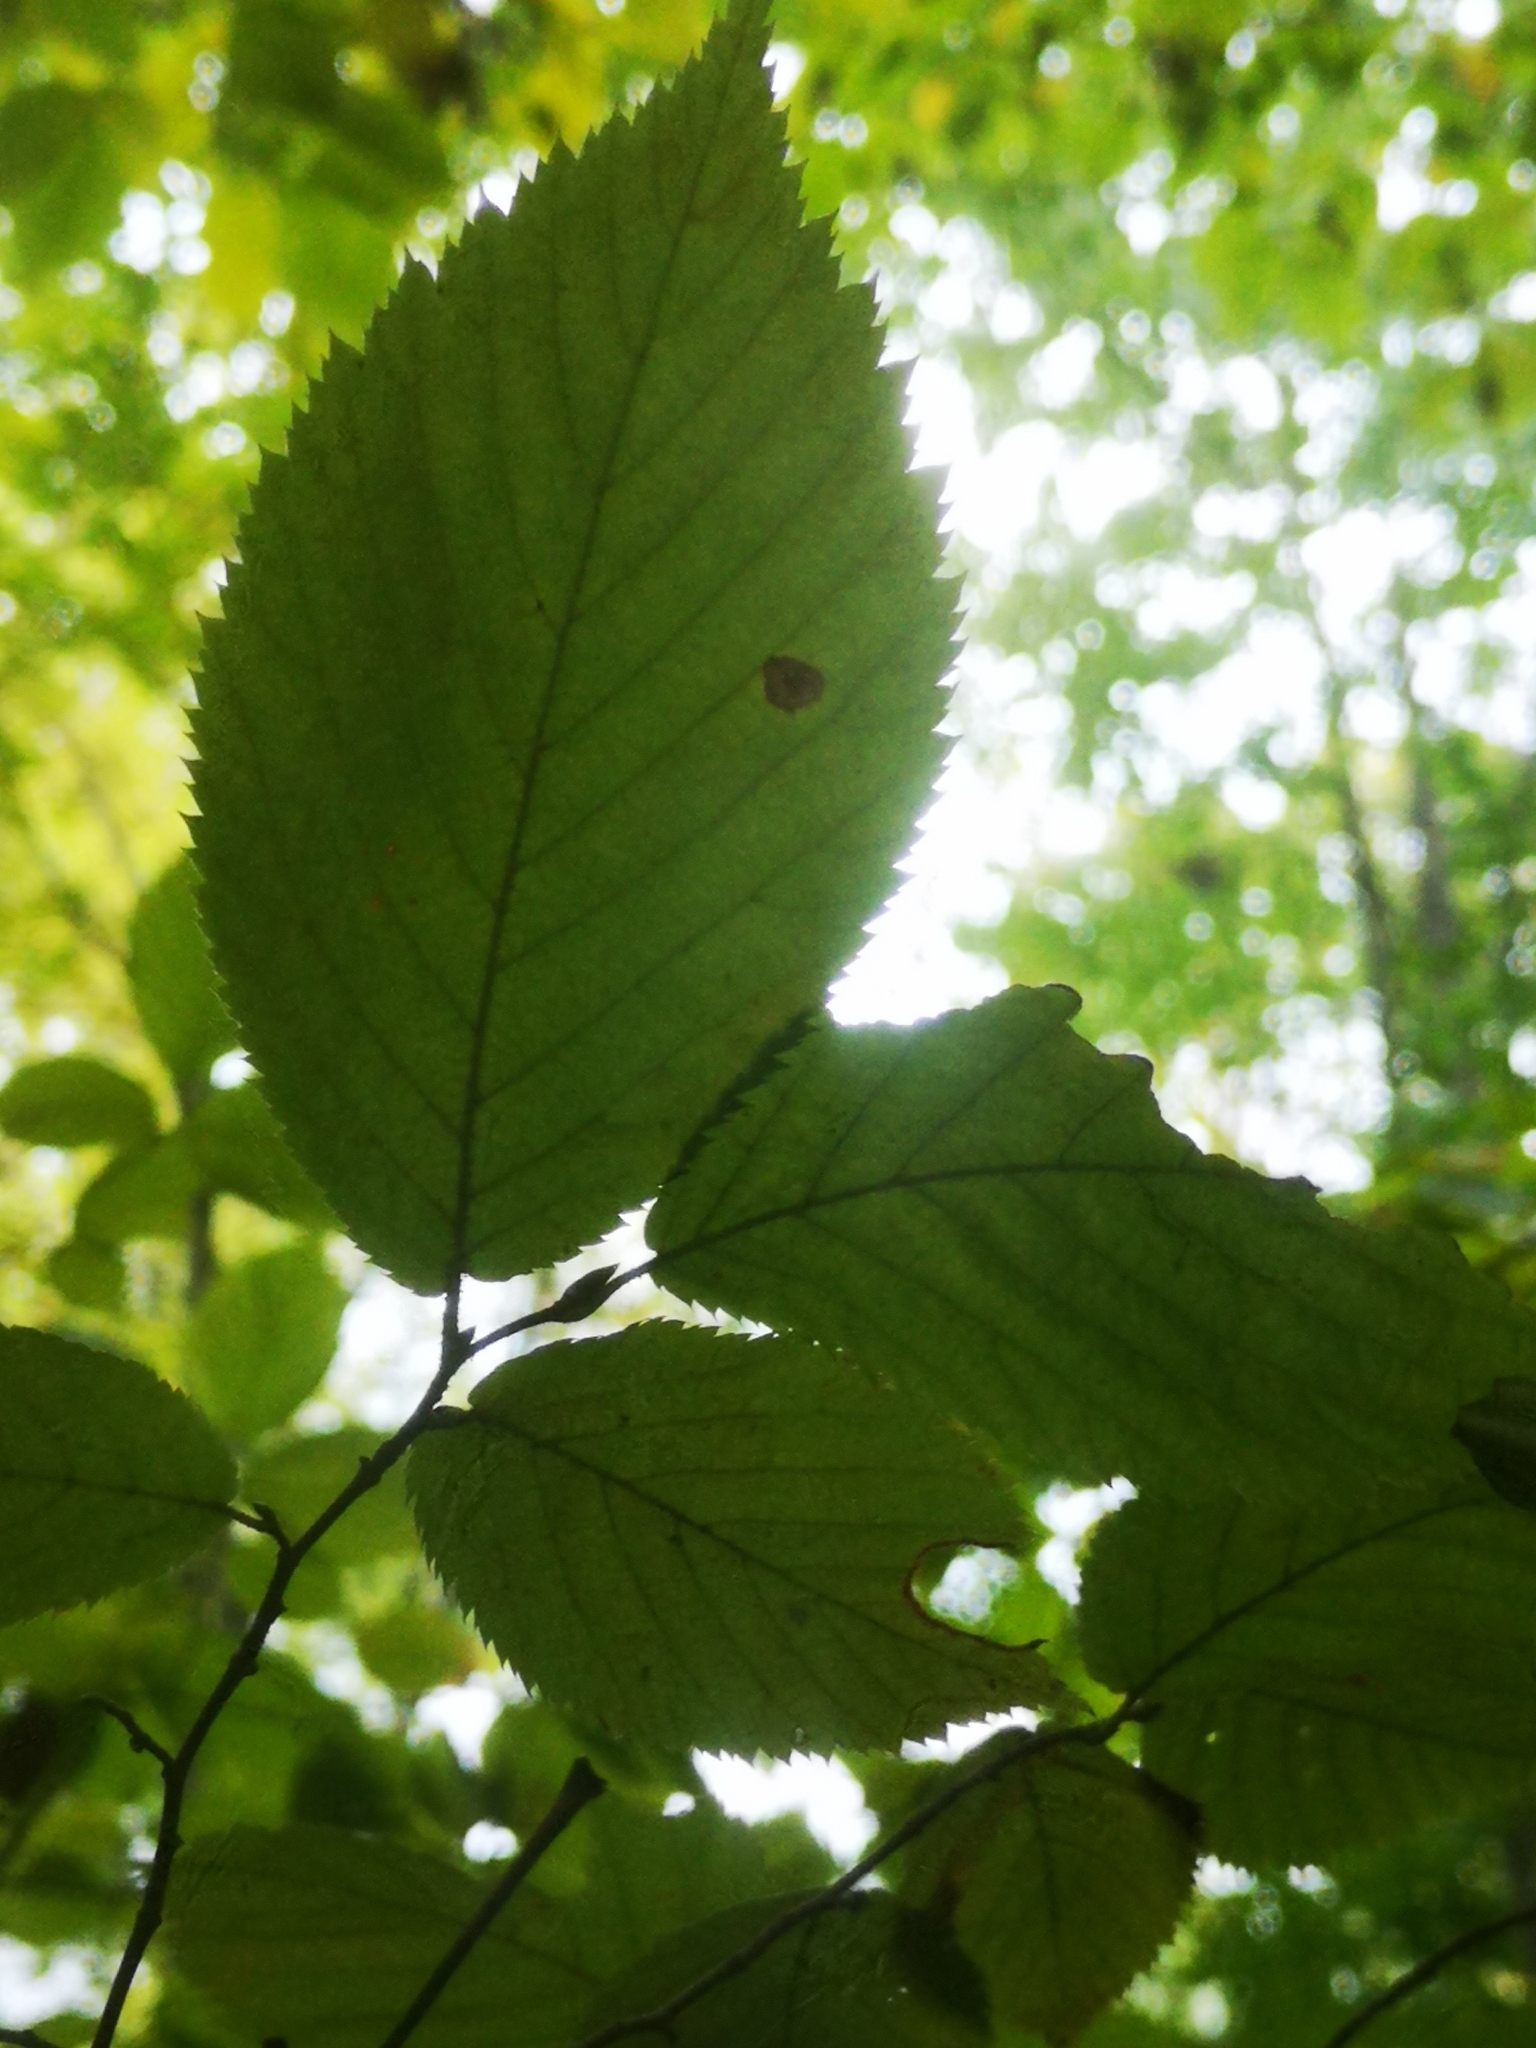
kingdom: Plantae
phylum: Tracheophyta
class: Magnoliopsida
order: Fagales
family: Juglandaceae
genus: Carya
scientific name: Carya cordiformis
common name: Bitternut hickory
